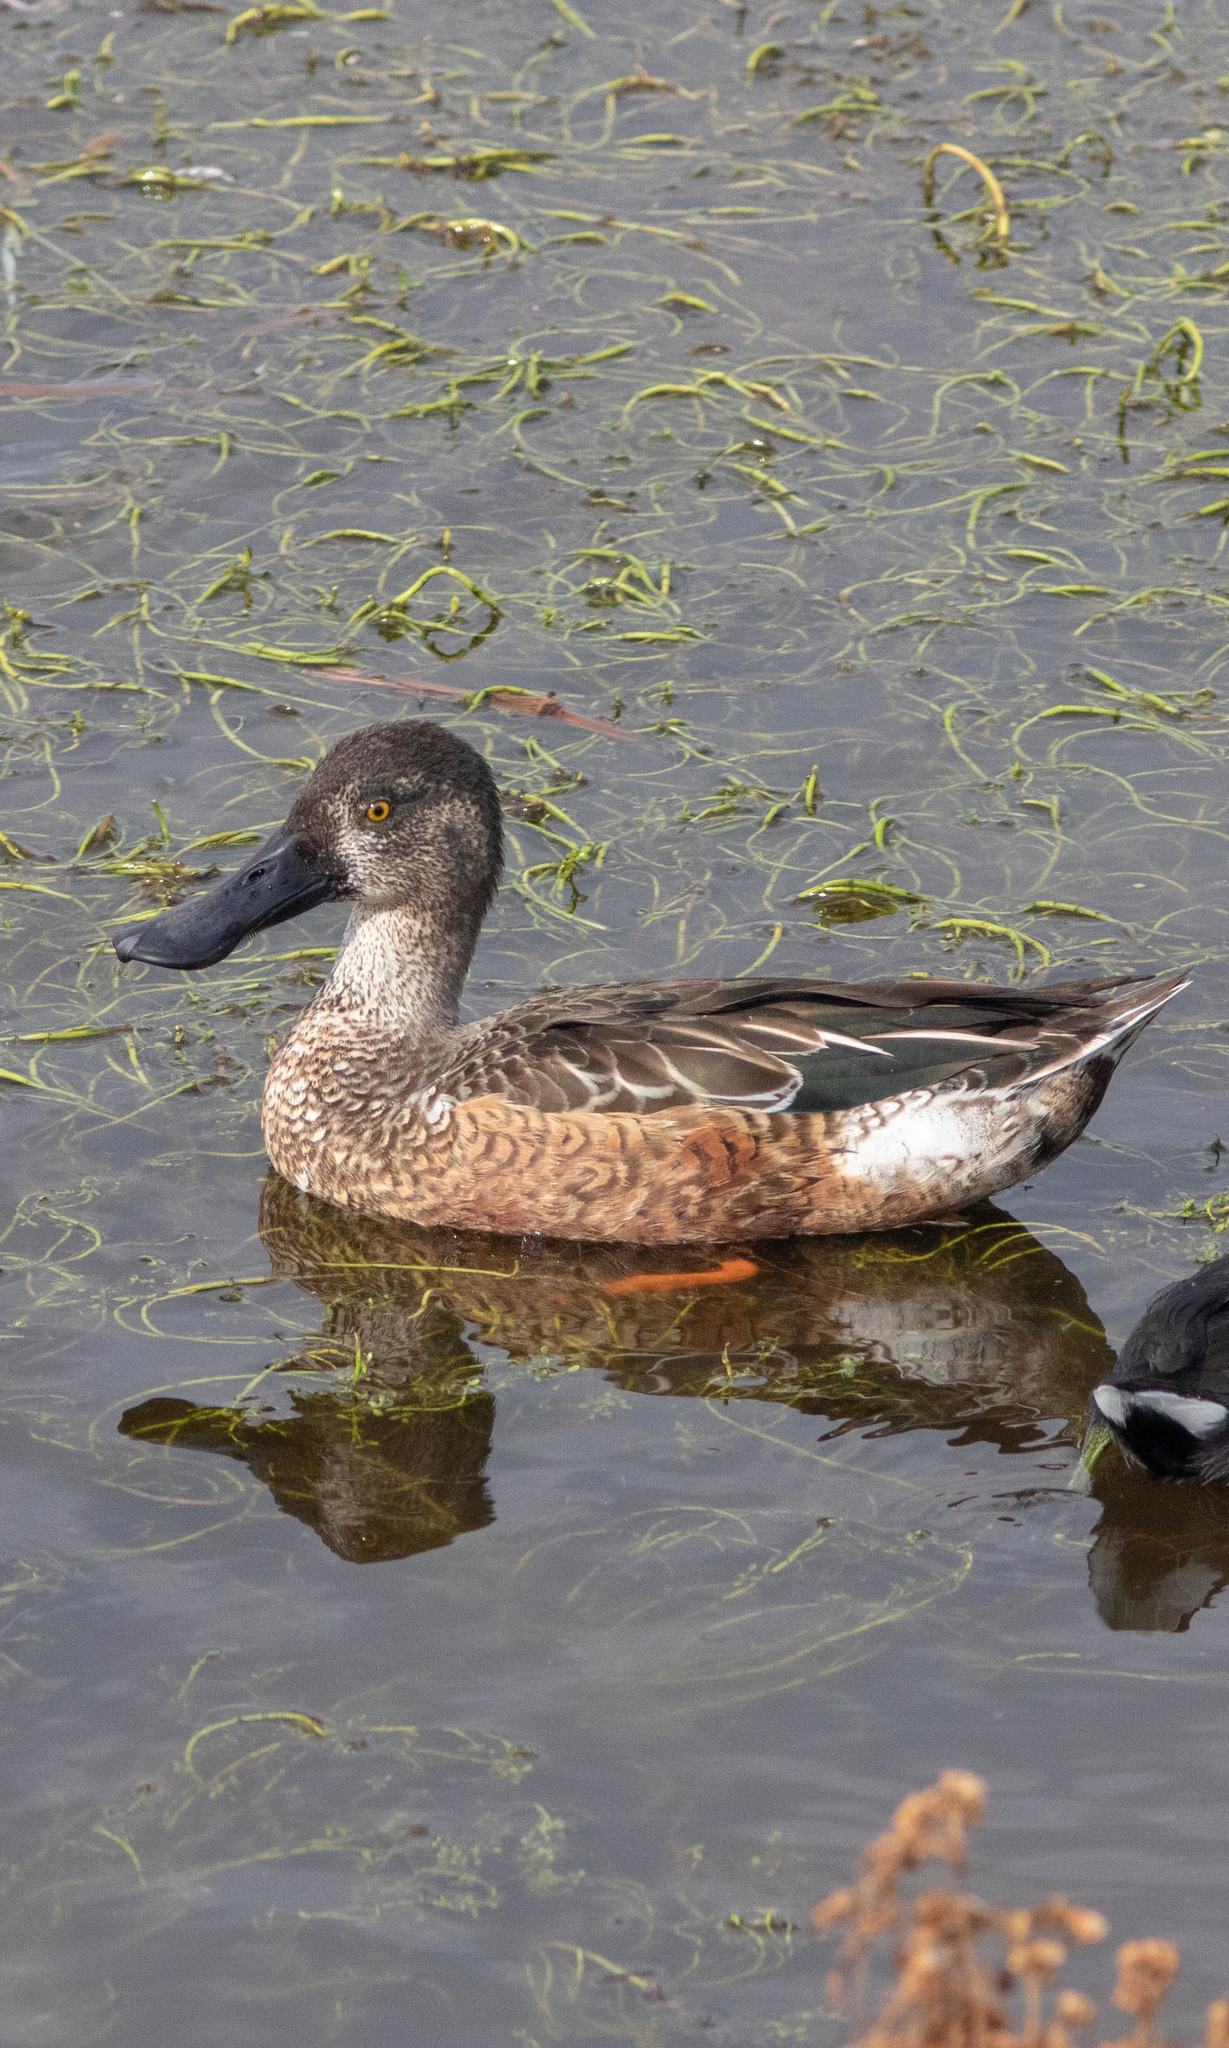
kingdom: Animalia
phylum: Chordata
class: Aves
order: Anseriformes
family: Anatidae
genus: Spatula
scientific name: Spatula clypeata
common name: Northern shoveler
